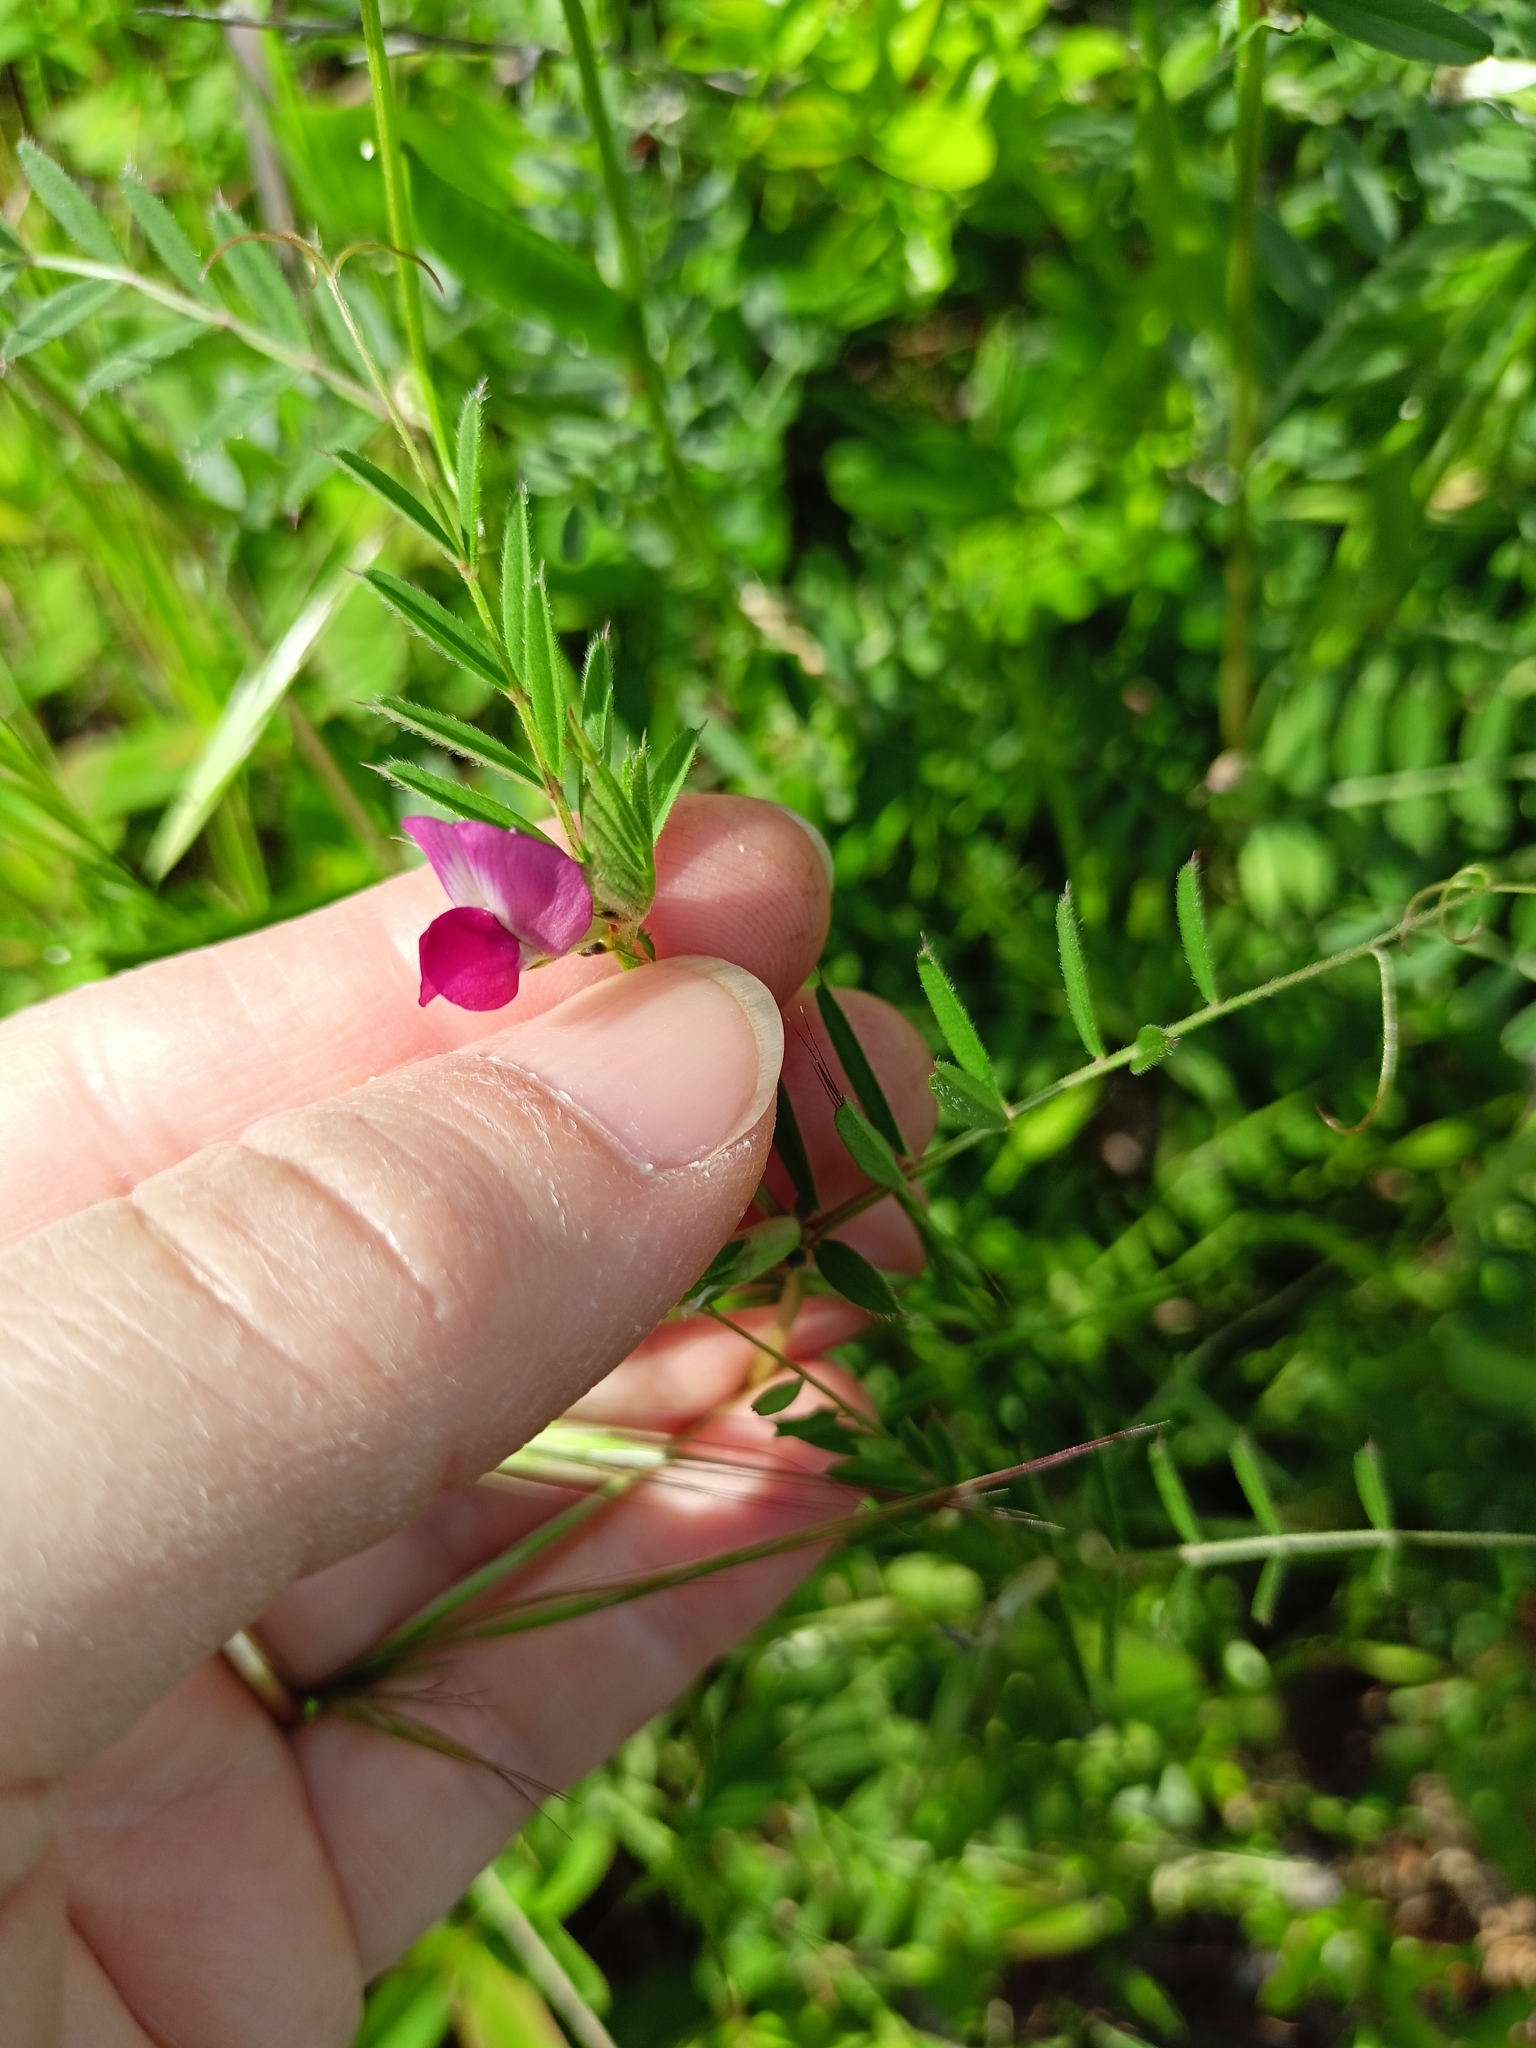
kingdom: Plantae
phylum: Tracheophyta
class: Magnoliopsida
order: Fabales
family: Fabaceae
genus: Vicia
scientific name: Vicia sativa
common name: Garden vetch
